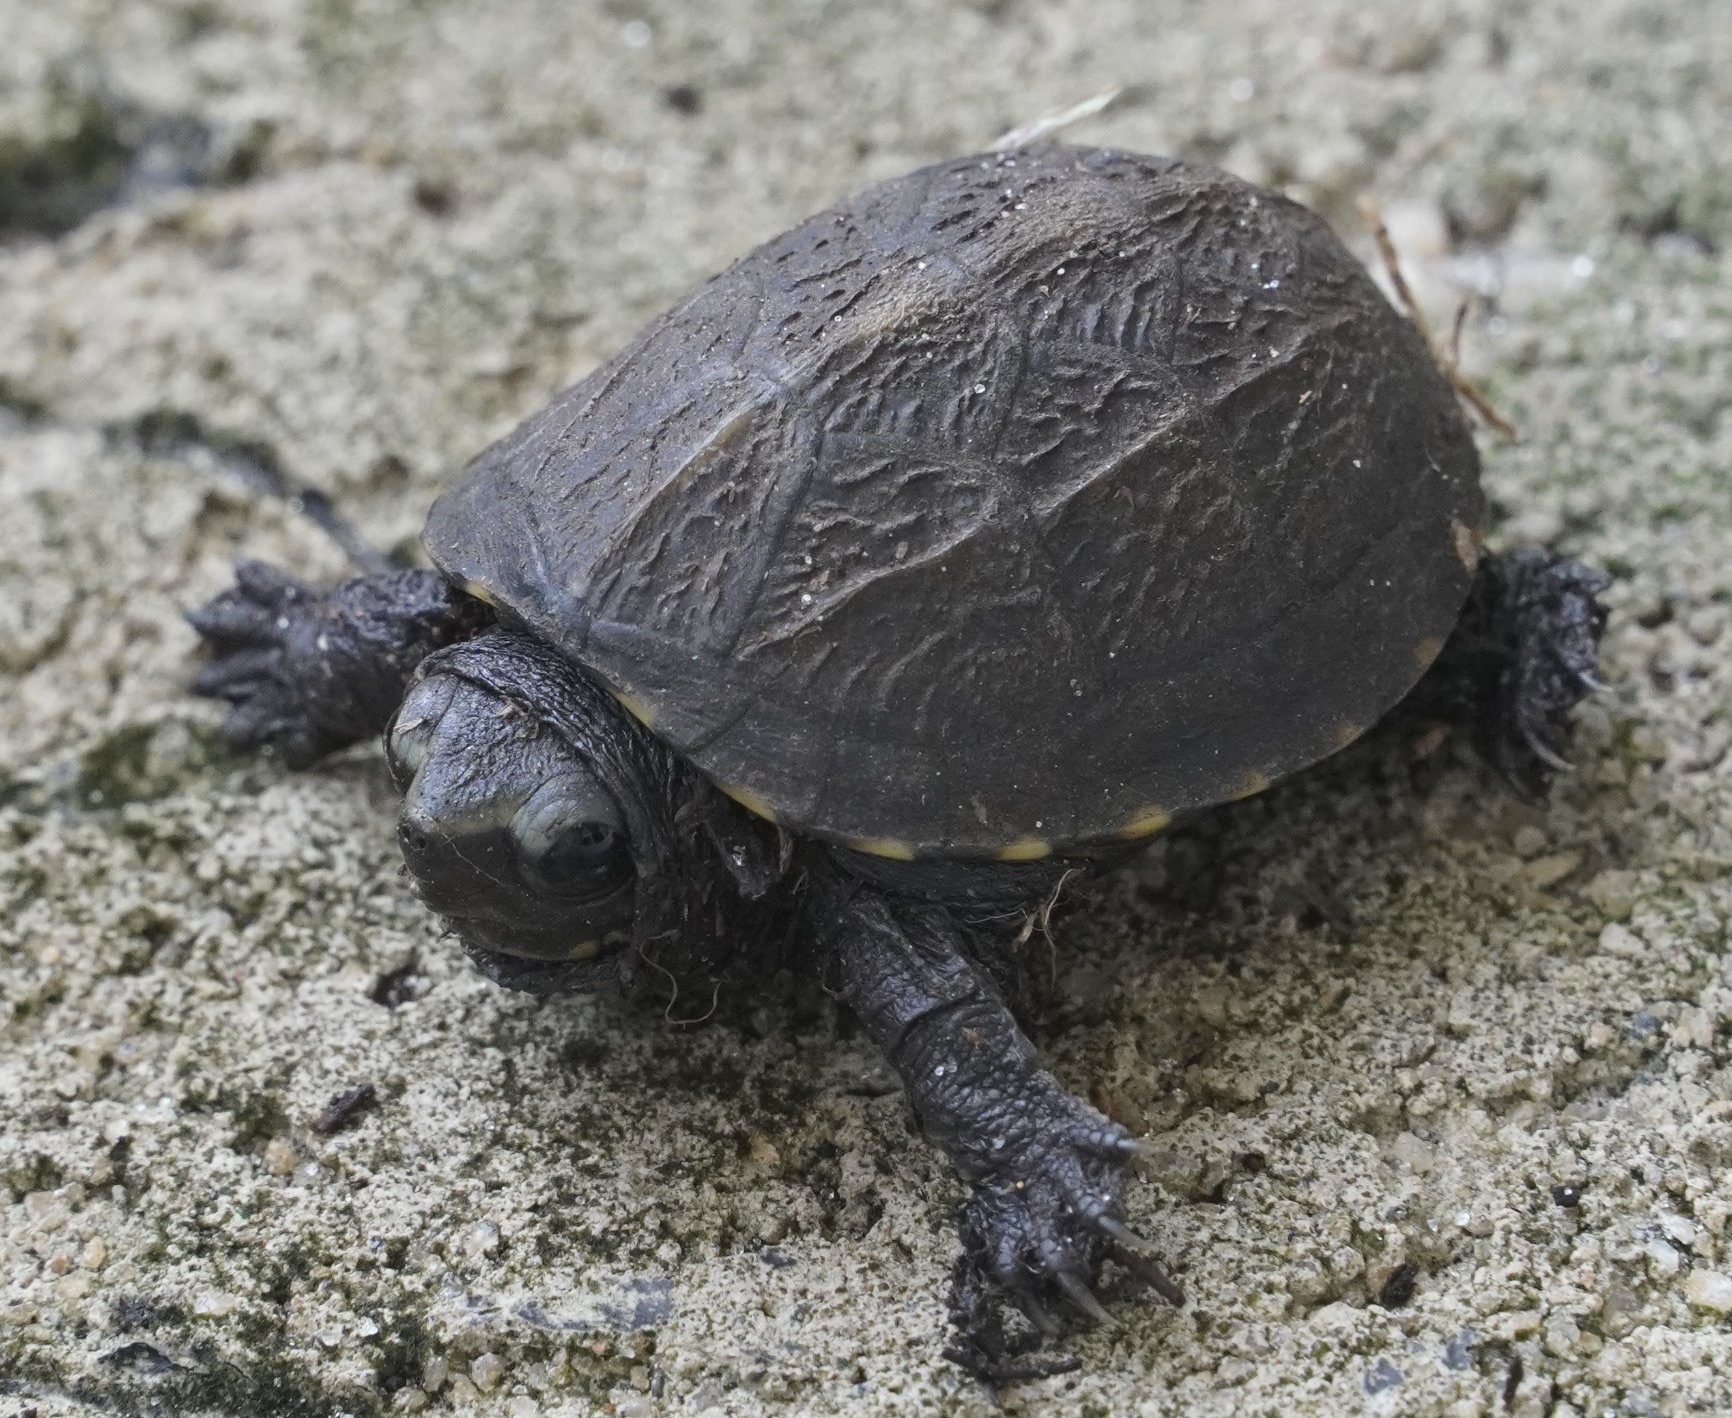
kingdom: Animalia
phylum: Chordata
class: Testudines
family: Kinosternidae
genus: Kinosternon
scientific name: Kinosternon baurii
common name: Striped mud turtle
